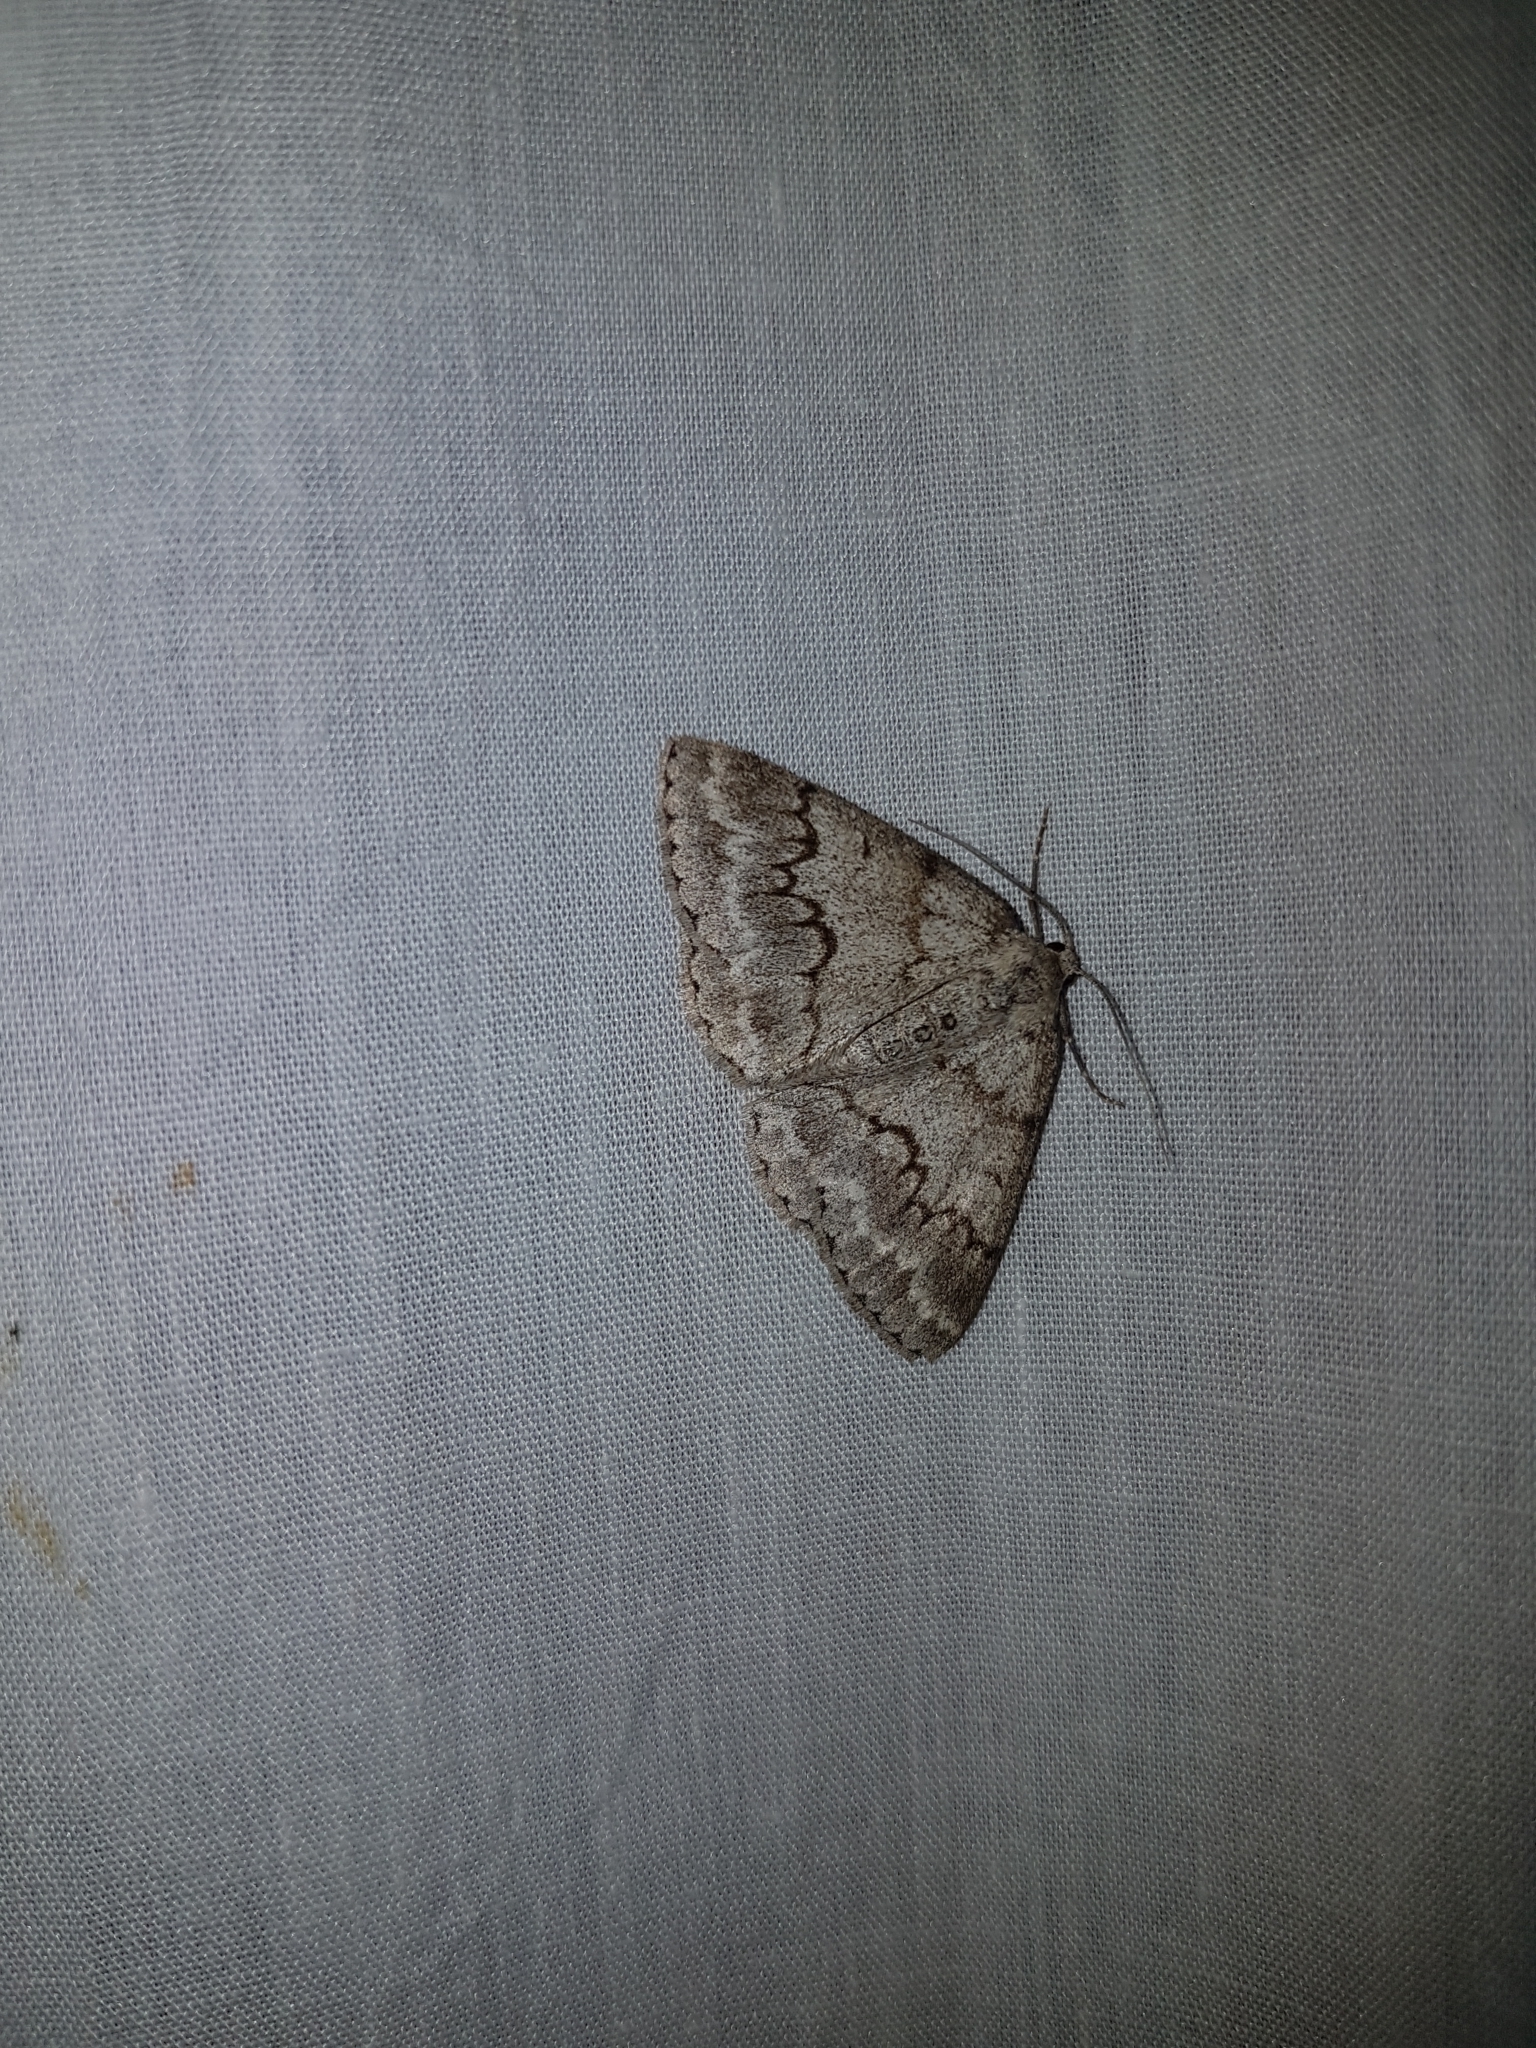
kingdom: Animalia
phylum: Arthropoda
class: Insecta
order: Lepidoptera
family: Geometridae
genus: Pseudoterpna
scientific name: Pseudoterpna coronillaria
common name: Jersey emerald
